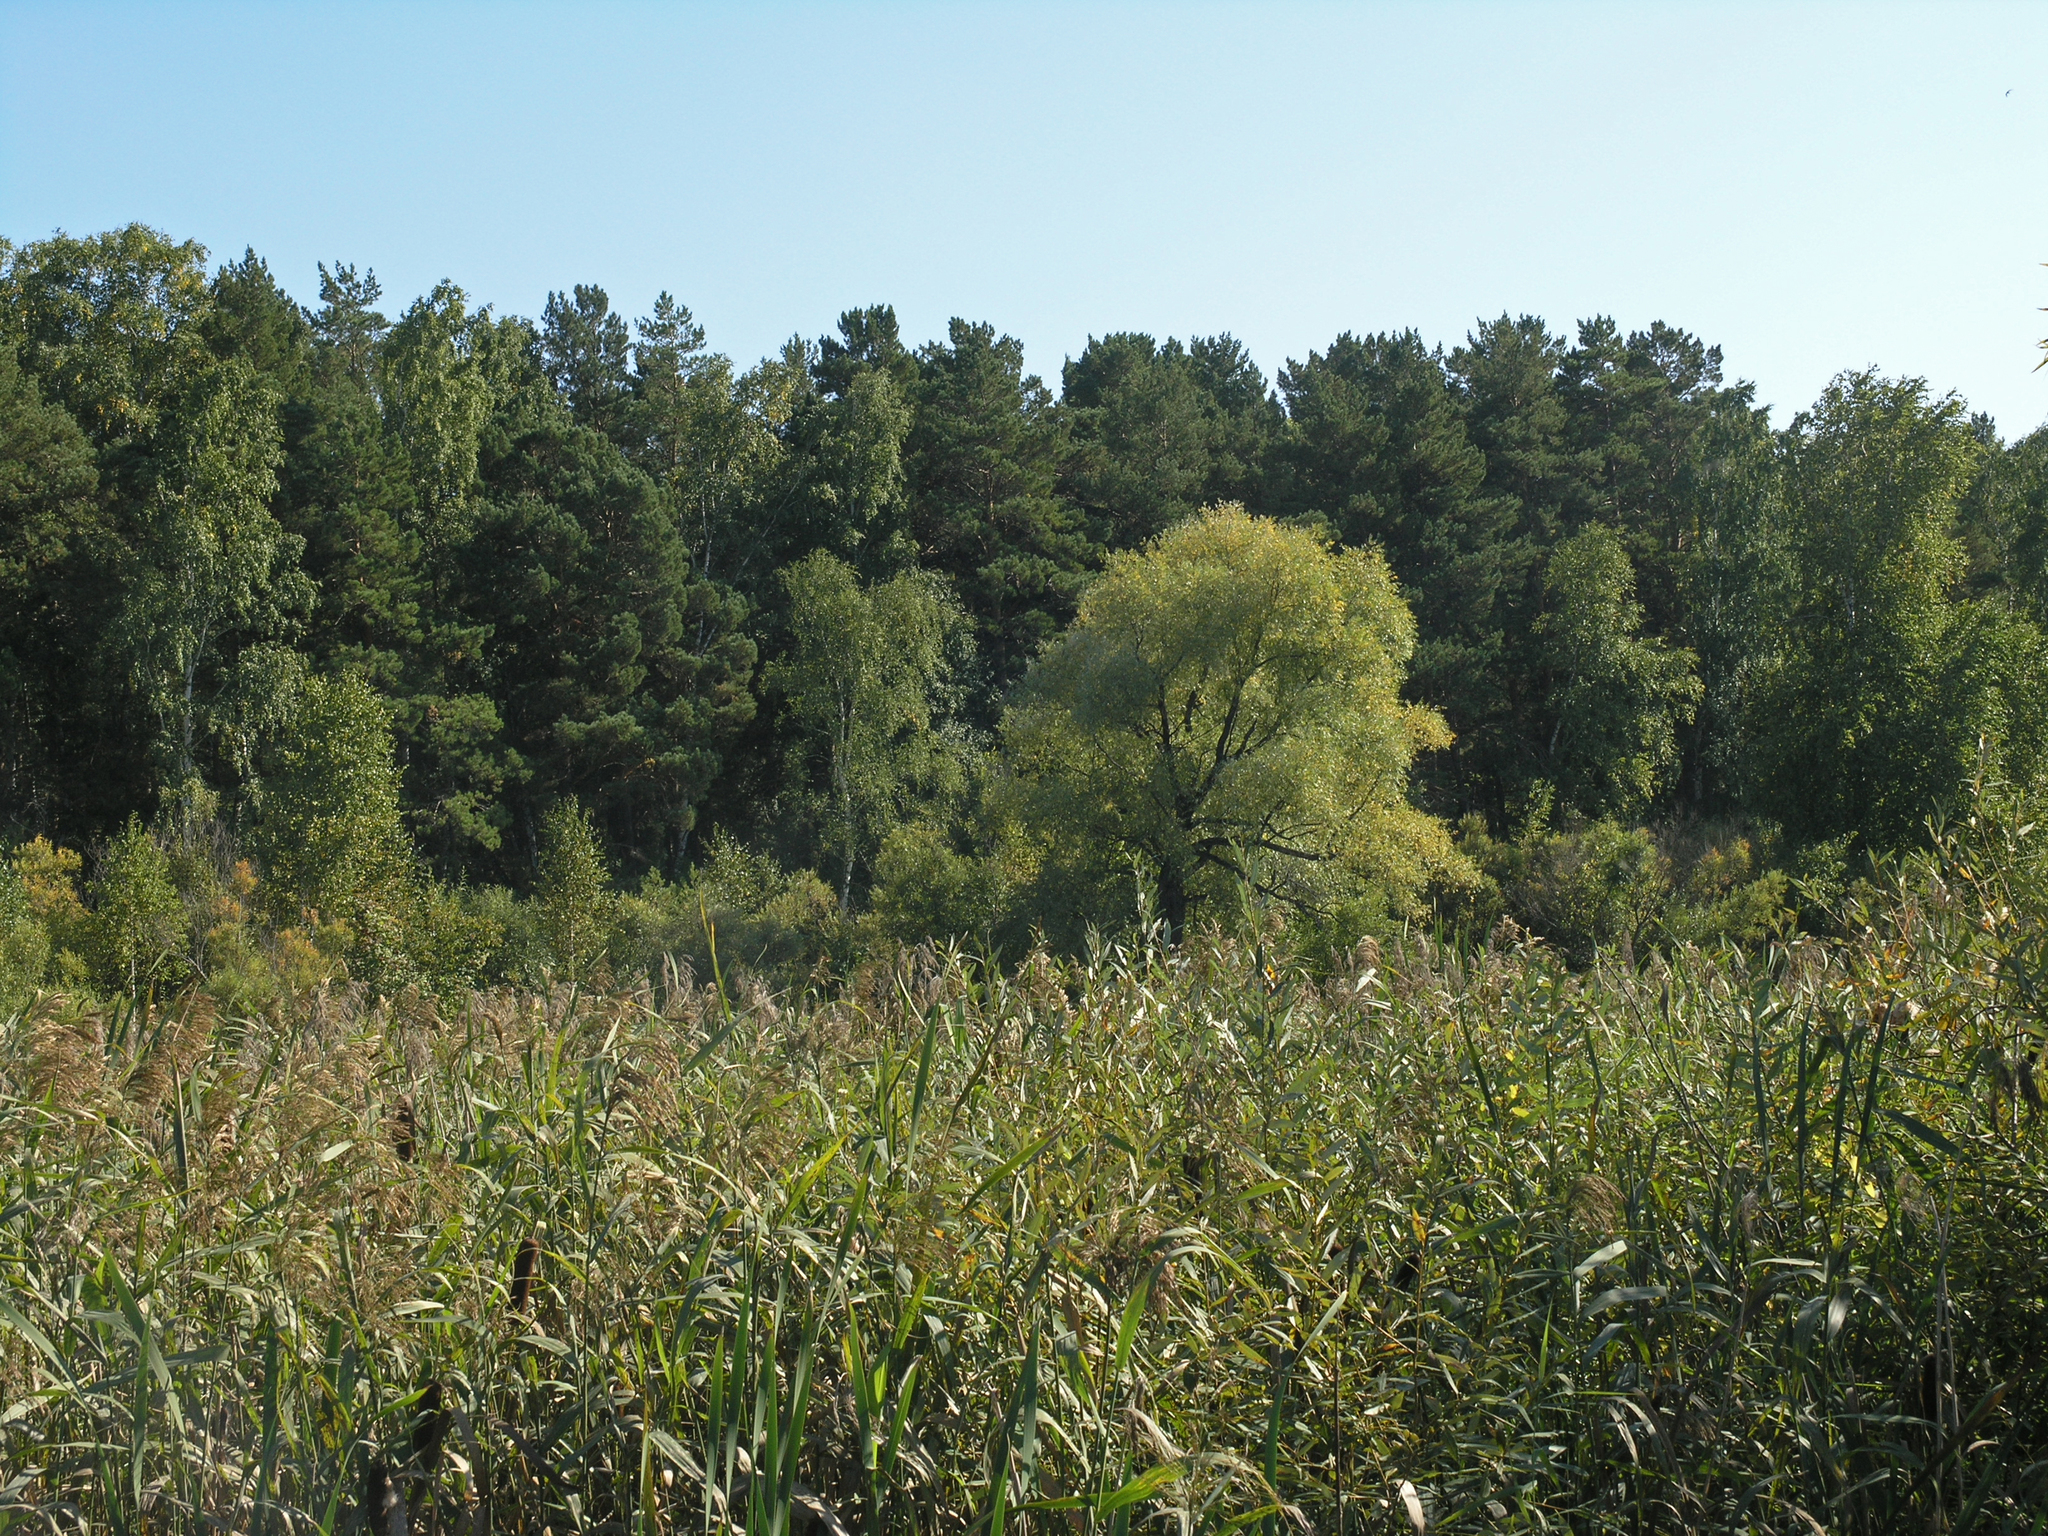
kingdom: Plantae
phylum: Tracheophyta
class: Liliopsida
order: Poales
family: Poaceae
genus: Phragmites
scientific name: Phragmites australis
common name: Common reed
